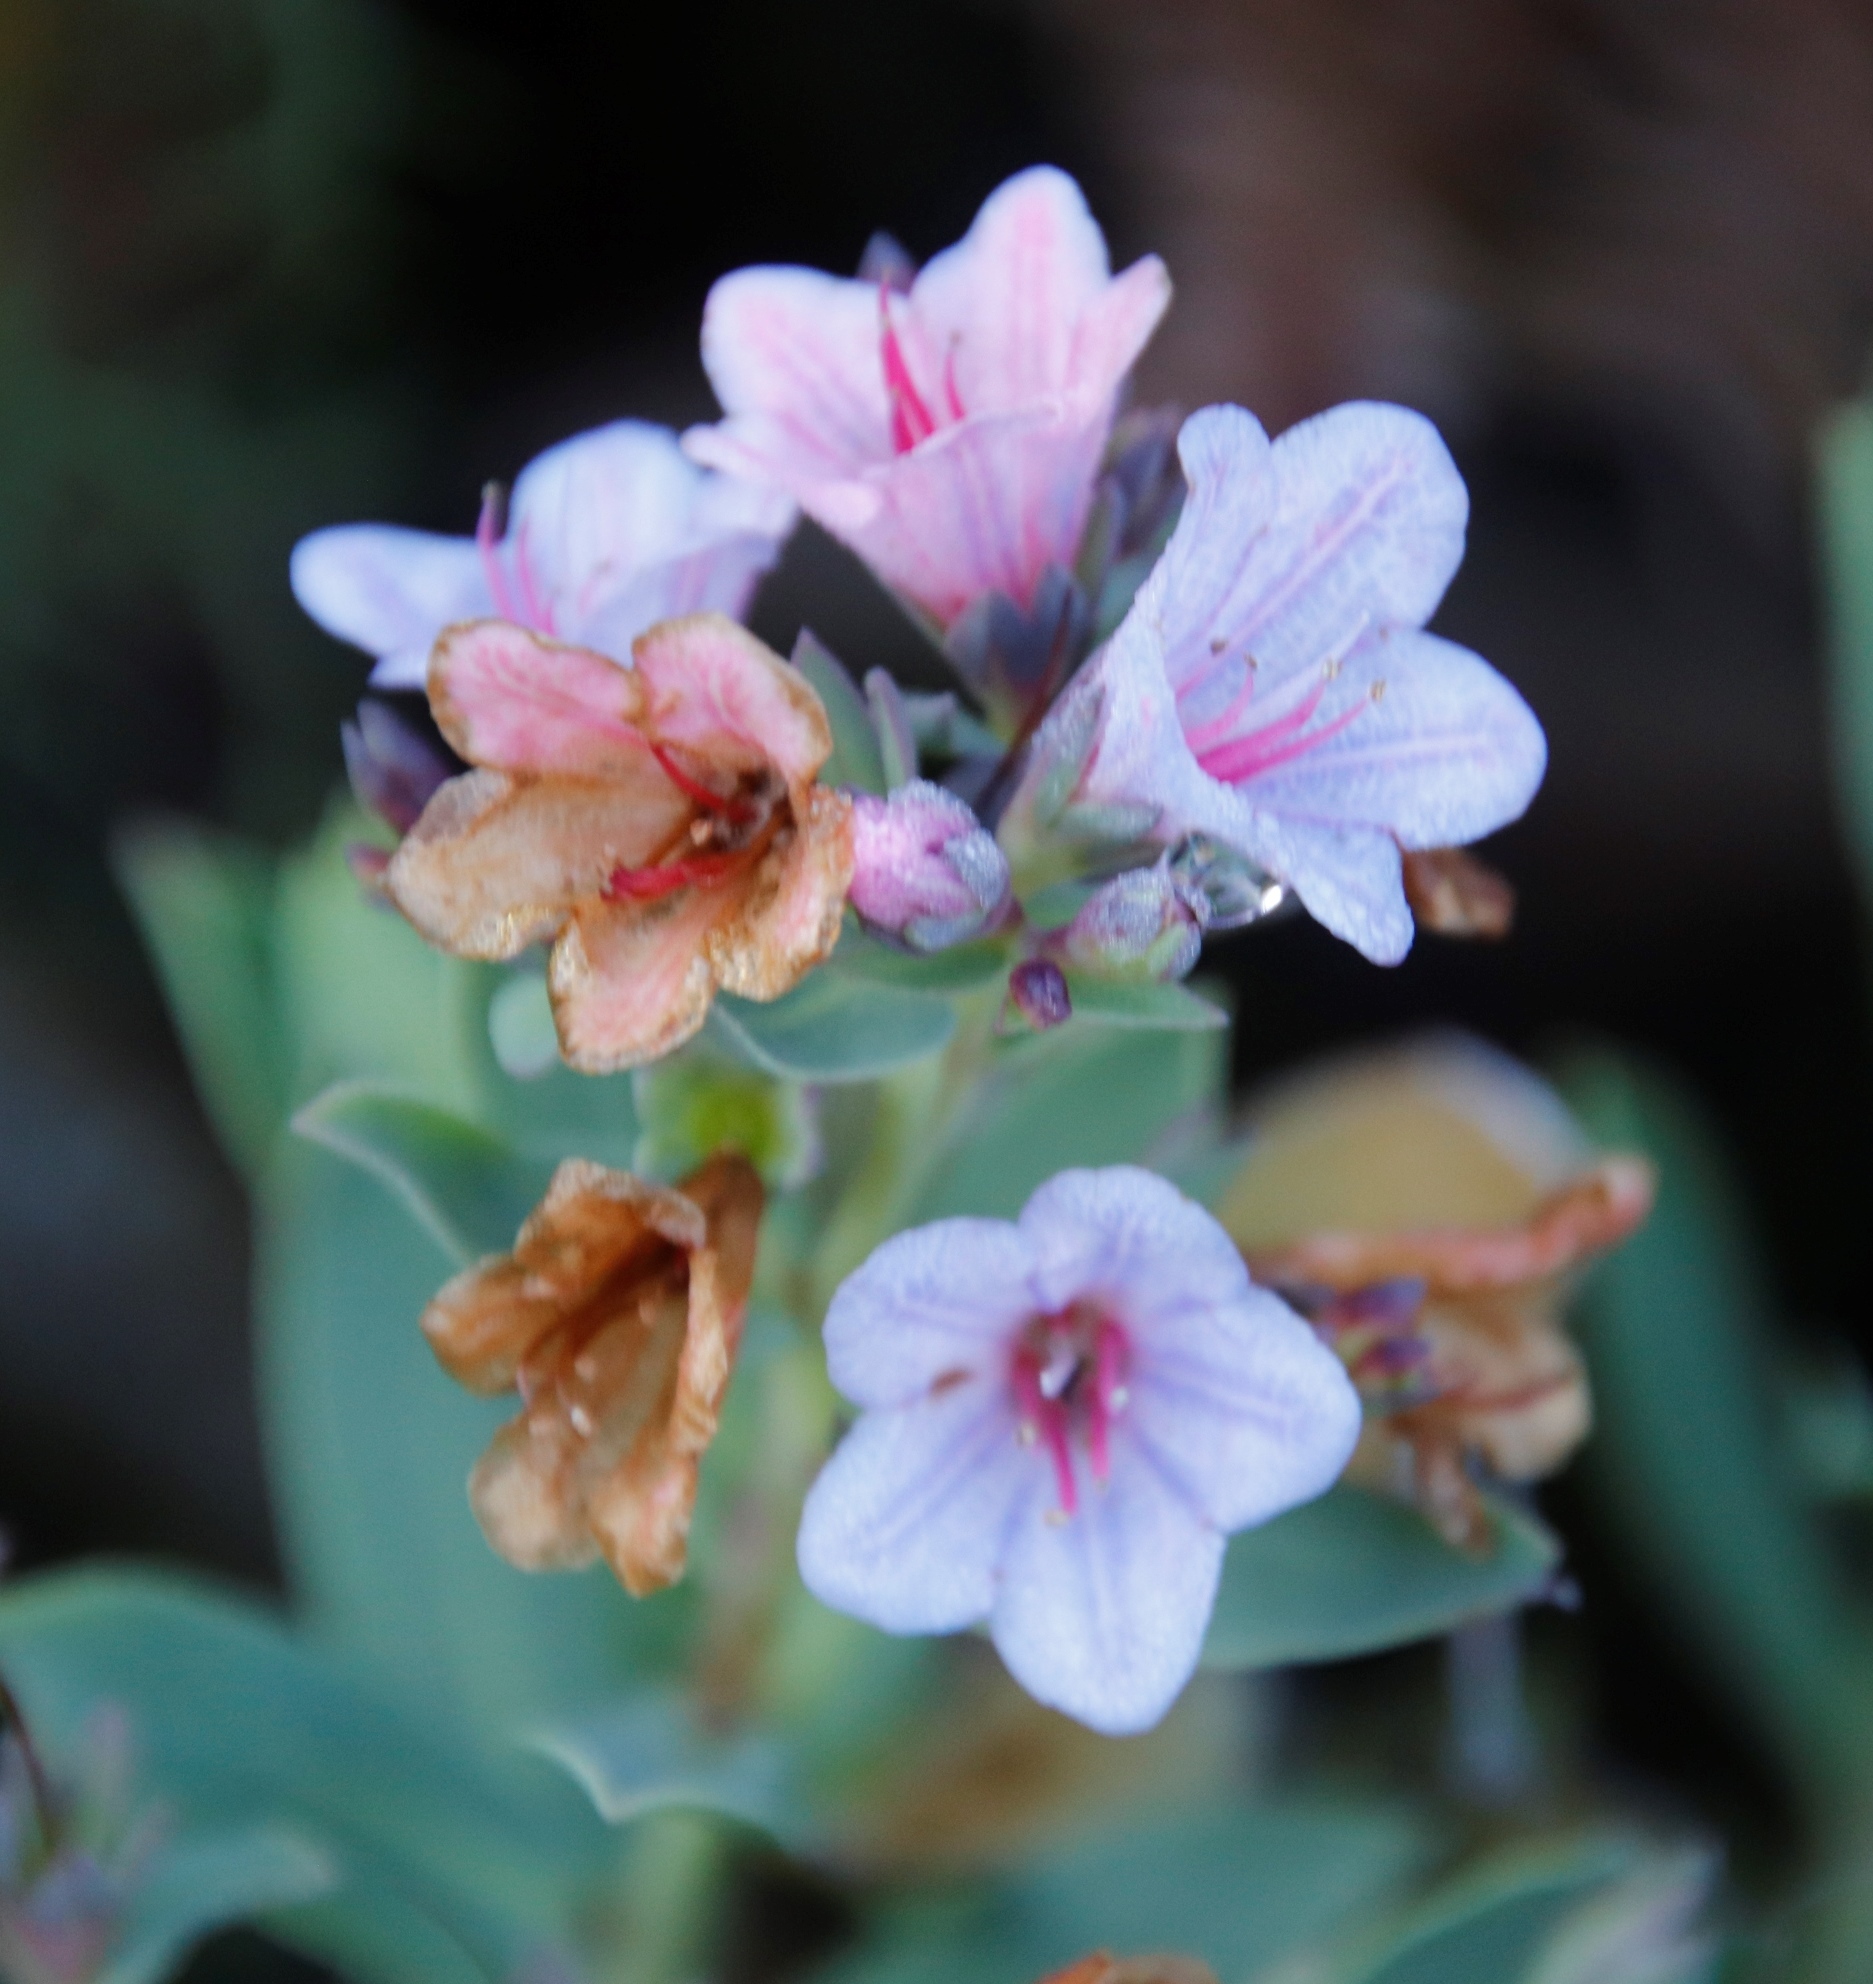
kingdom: Plantae
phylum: Tracheophyta
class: Magnoliopsida
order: Boraginales
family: Boraginaceae
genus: Lobostemon
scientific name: Lobostemon glaucophyllus
